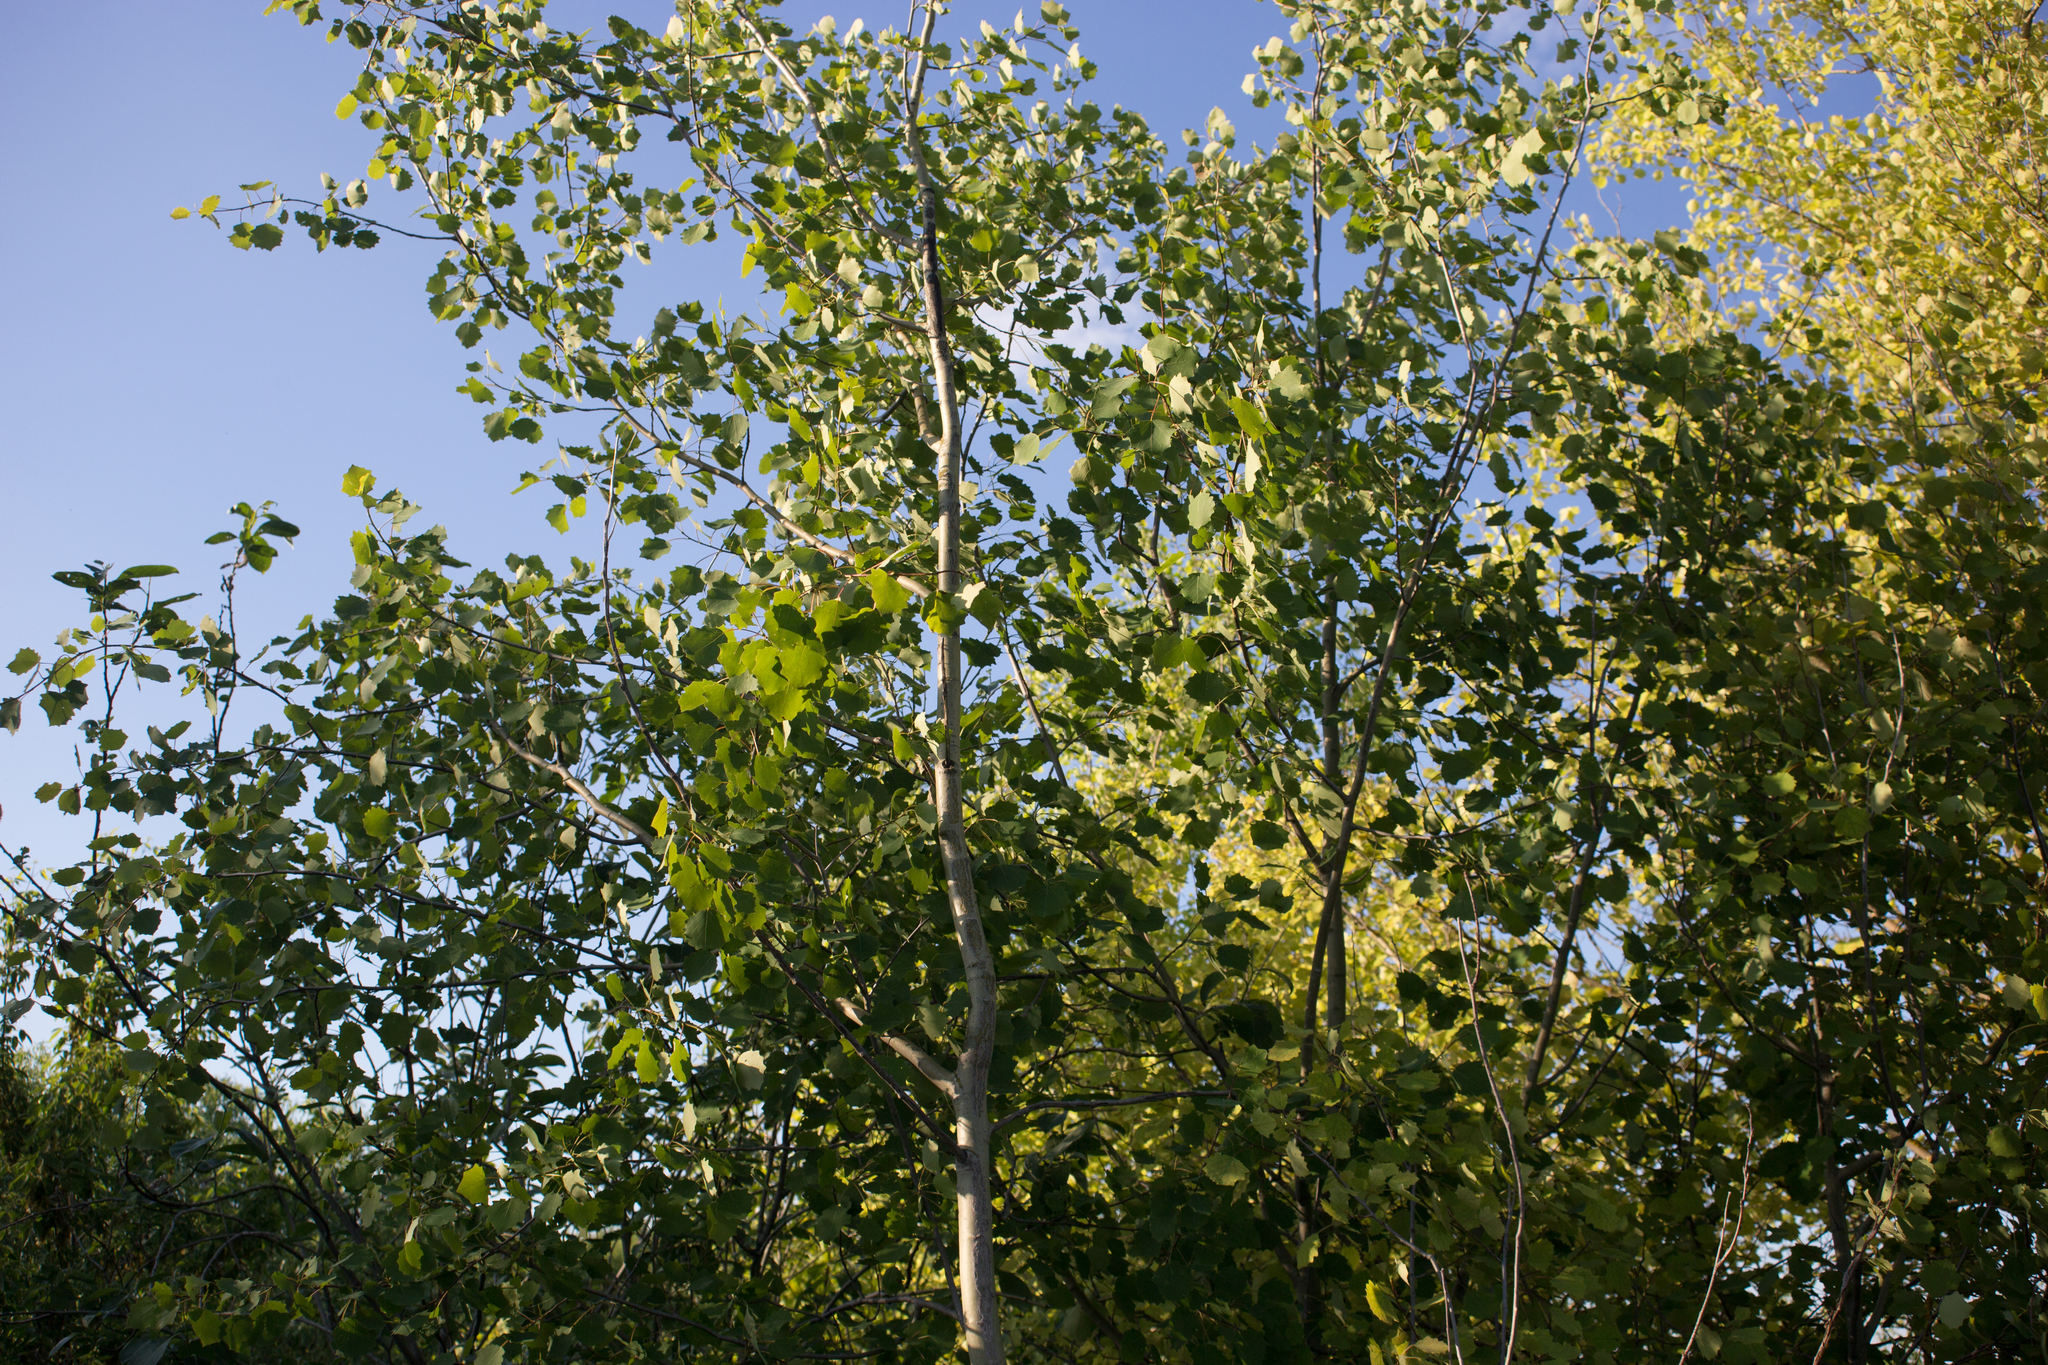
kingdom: Plantae
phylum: Tracheophyta
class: Magnoliopsida
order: Malpighiales
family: Salicaceae
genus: Populus
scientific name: Populus tremula
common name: European aspen
